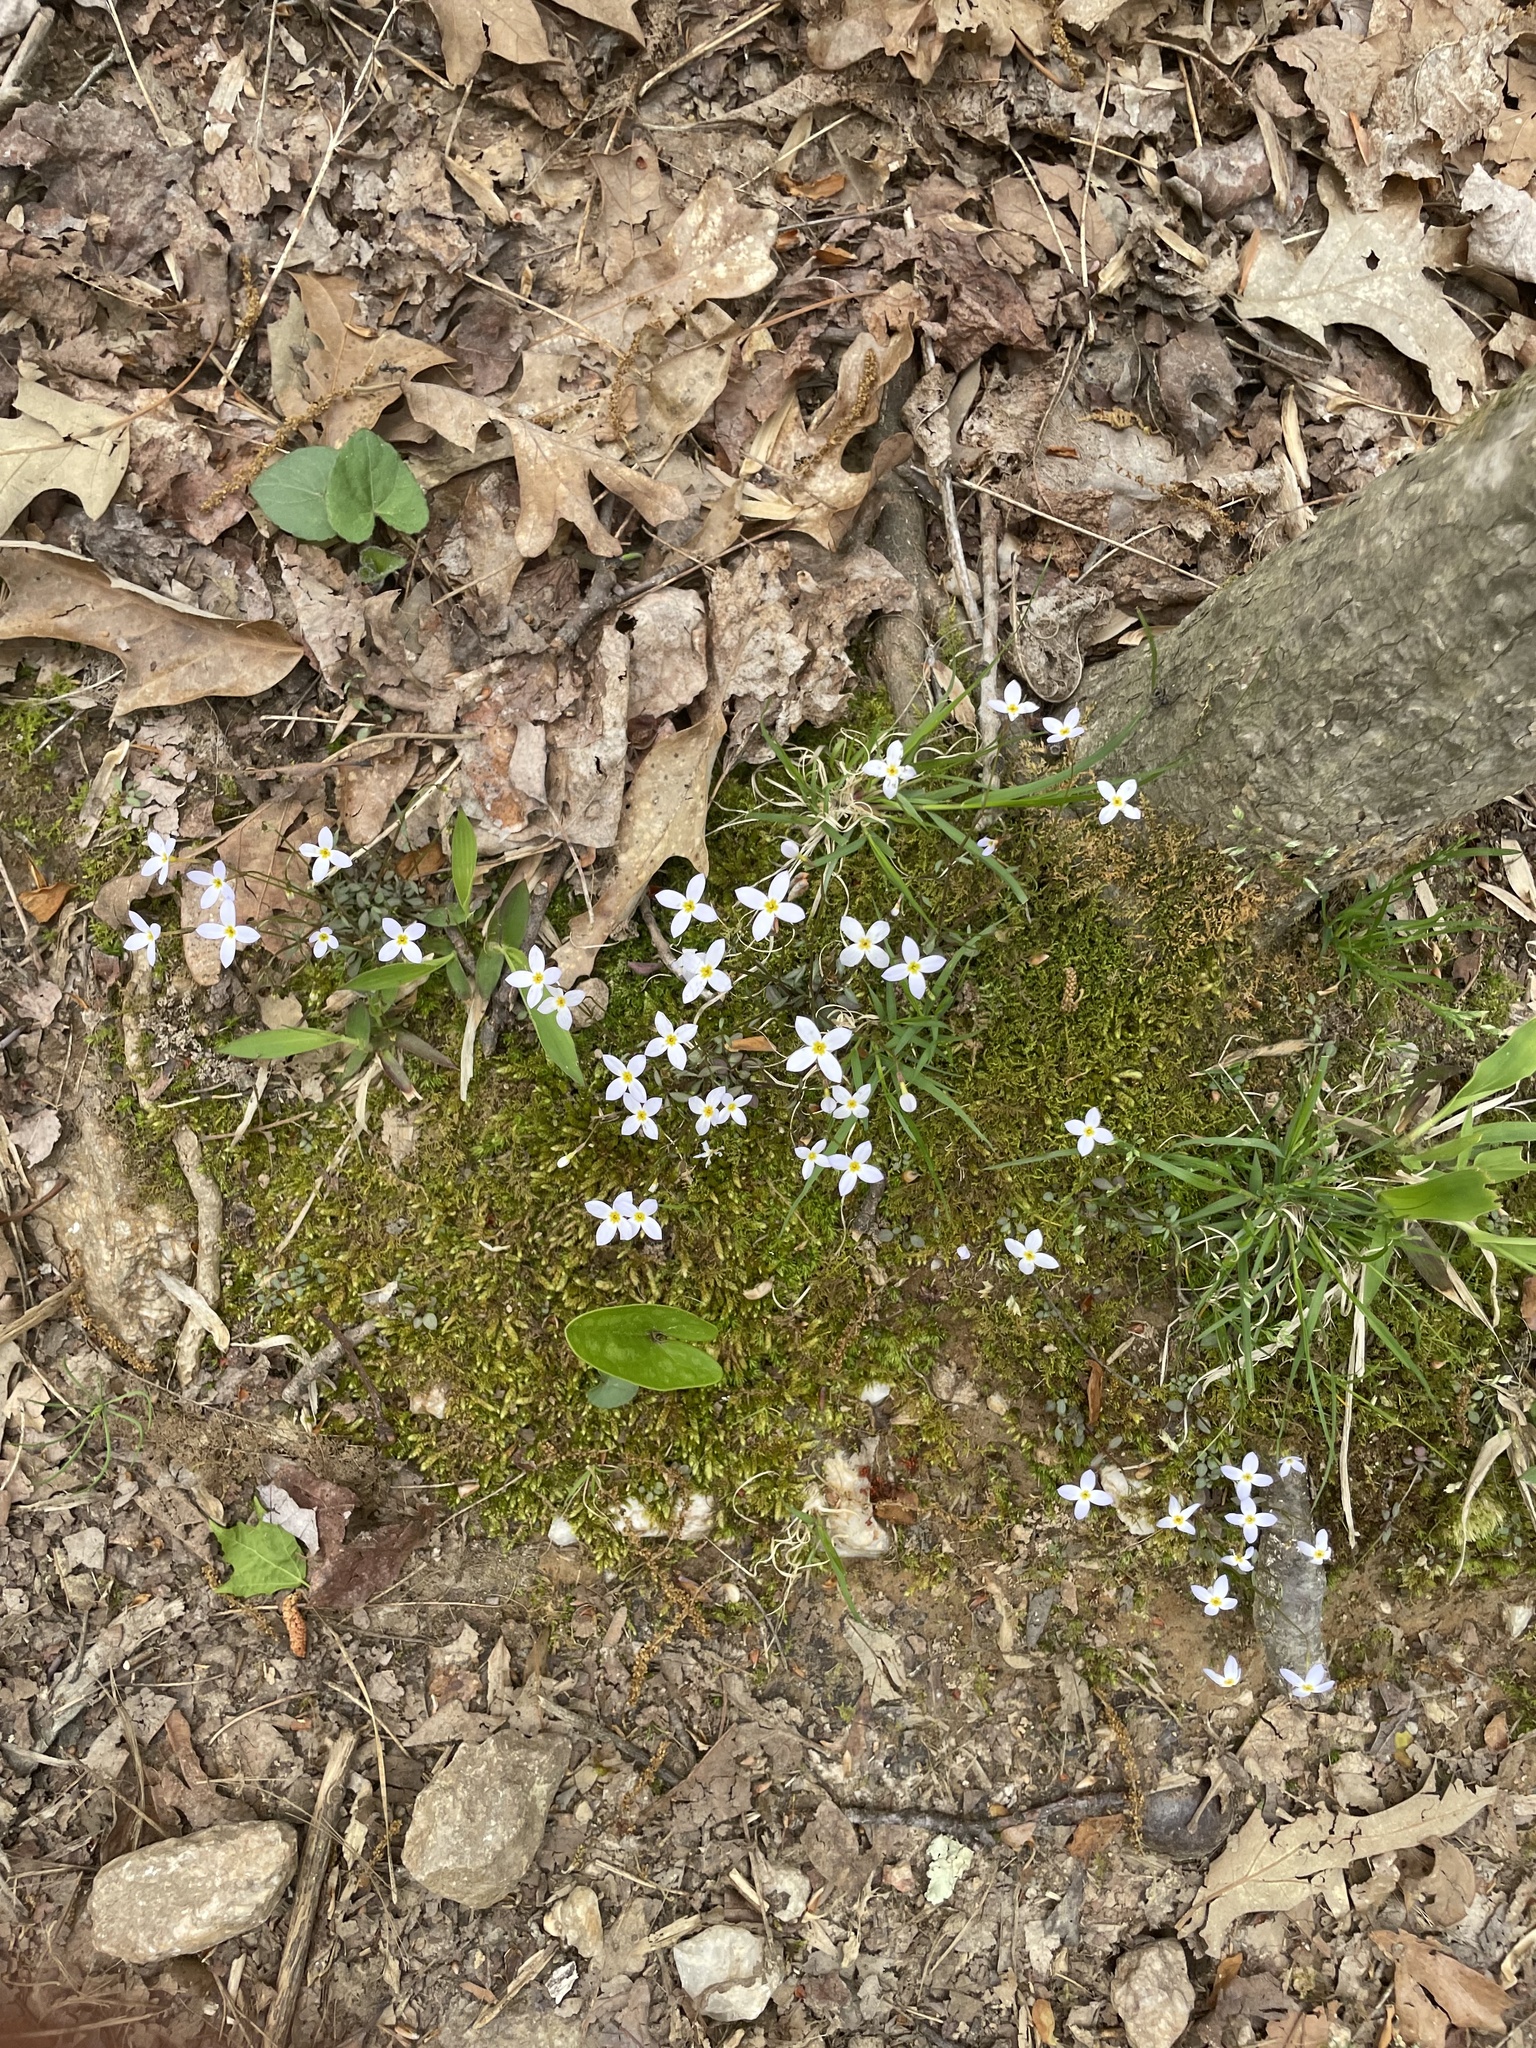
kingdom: Plantae
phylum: Tracheophyta
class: Magnoliopsida
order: Gentianales
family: Rubiaceae
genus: Houstonia
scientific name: Houstonia caerulea
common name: Bluets
